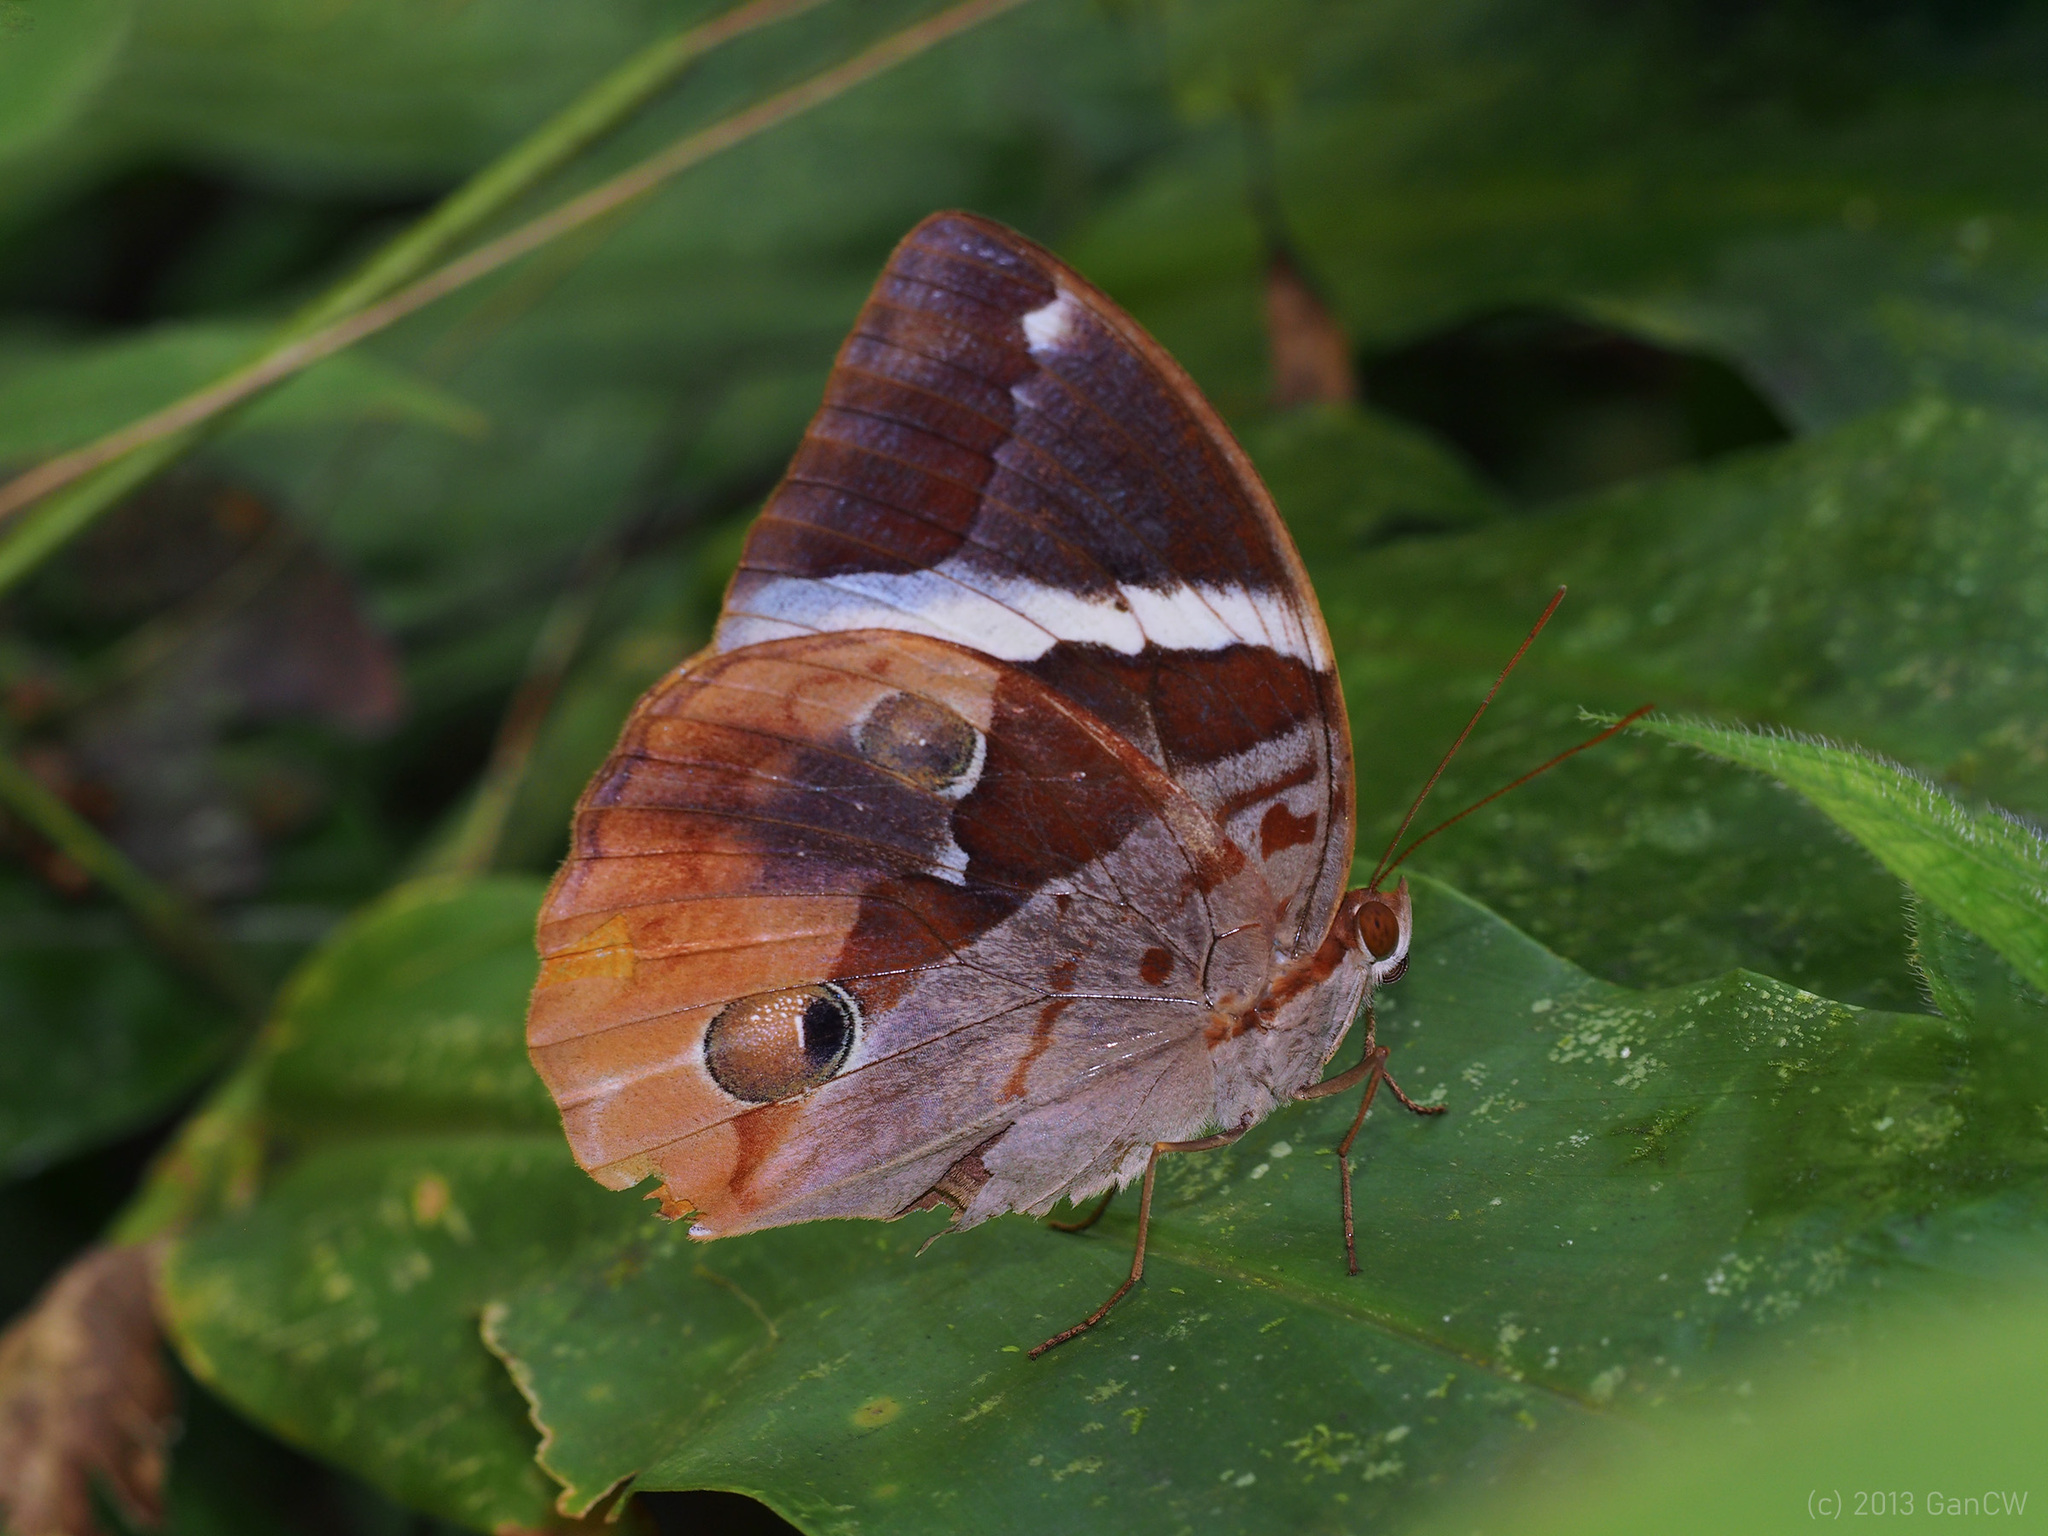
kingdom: Animalia
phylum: Arthropoda
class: Insecta
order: Lepidoptera
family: Nymphalidae
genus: Thauria
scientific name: Thauria aliris
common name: Tufted jungle king
